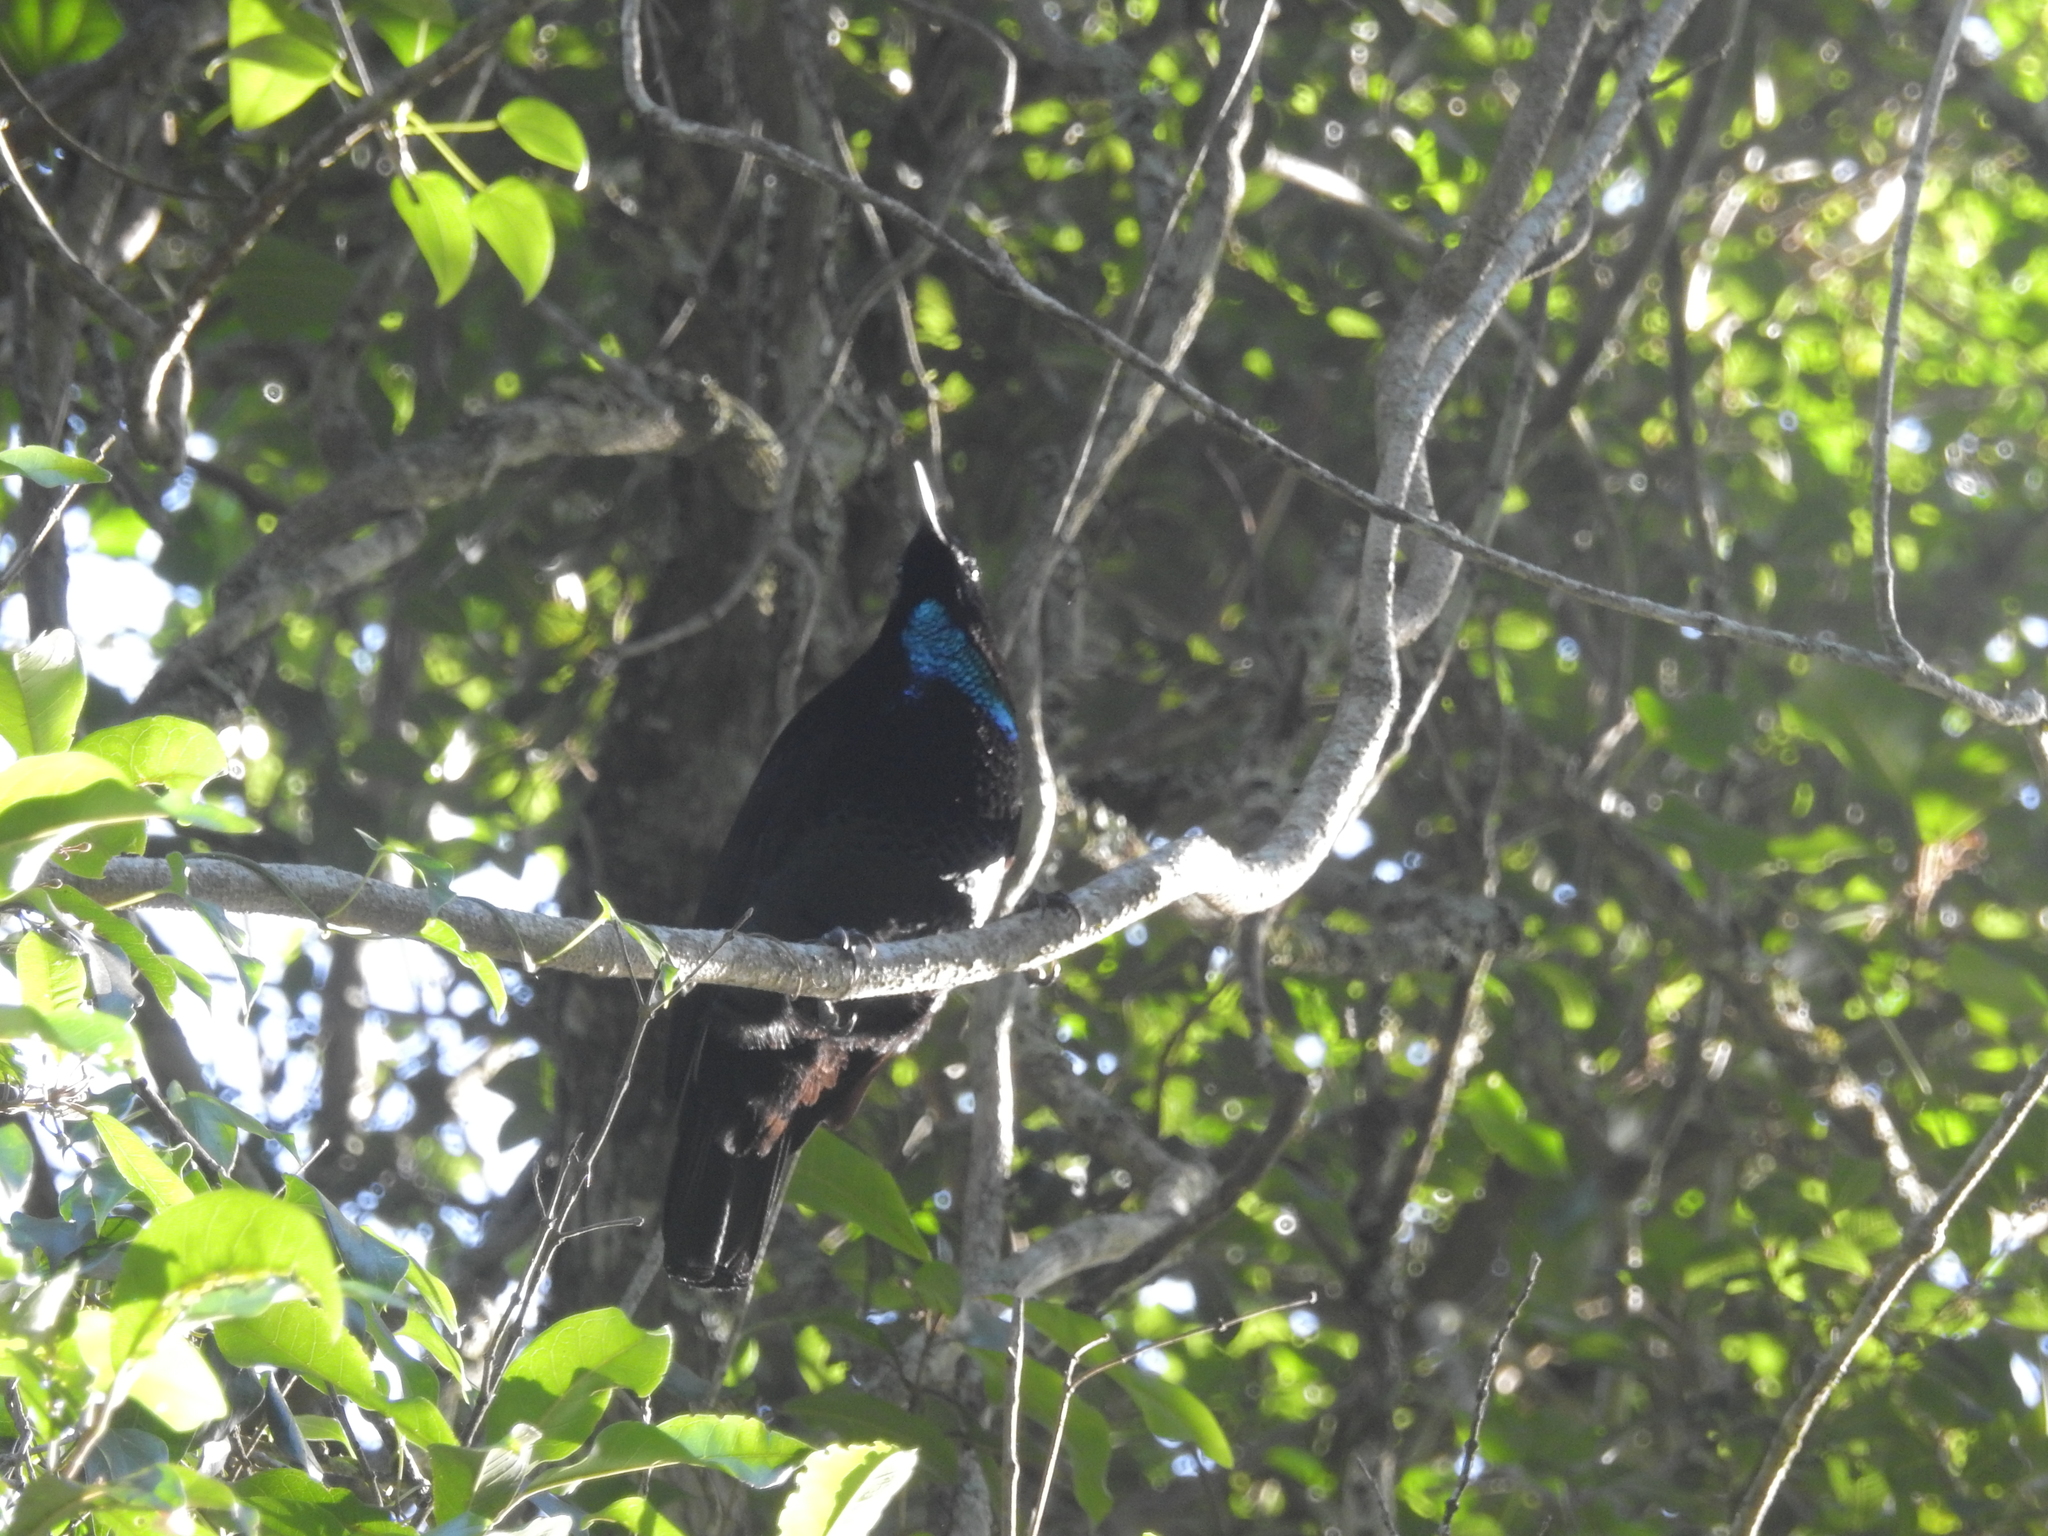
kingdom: Animalia
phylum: Chordata
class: Aves
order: Passeriformes
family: Paradisaeidae
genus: Ptiloris
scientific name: Ptiloris paradiseus
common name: Paradise riflebird
